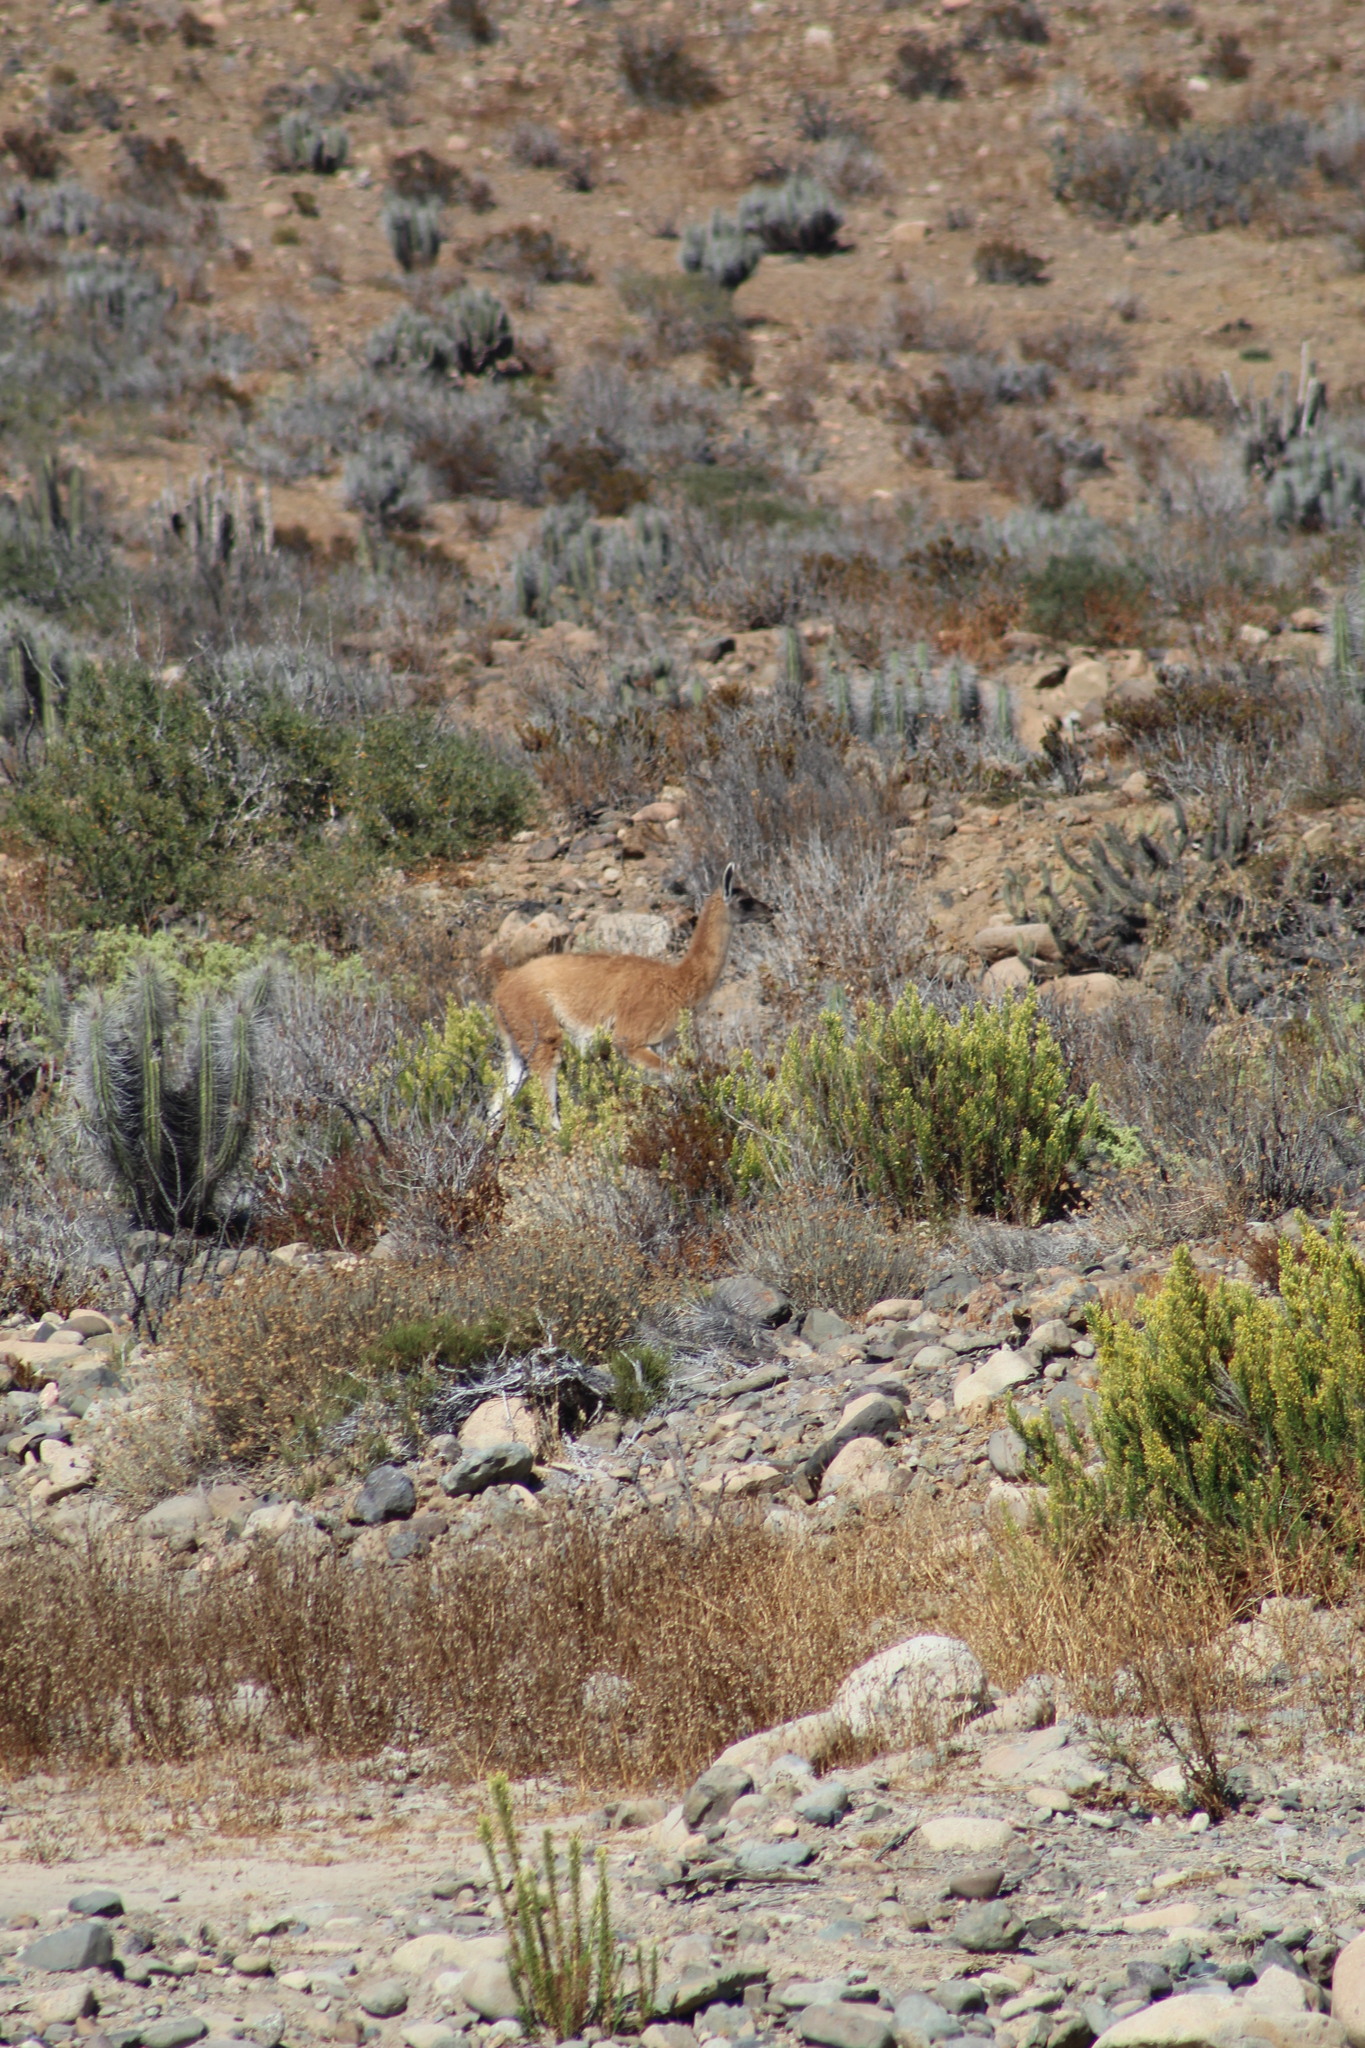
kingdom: Animalia
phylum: Chordata
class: Mammalia
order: Artiodactyla
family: Camelidae
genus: Lama
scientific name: Lama glama
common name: Llama
